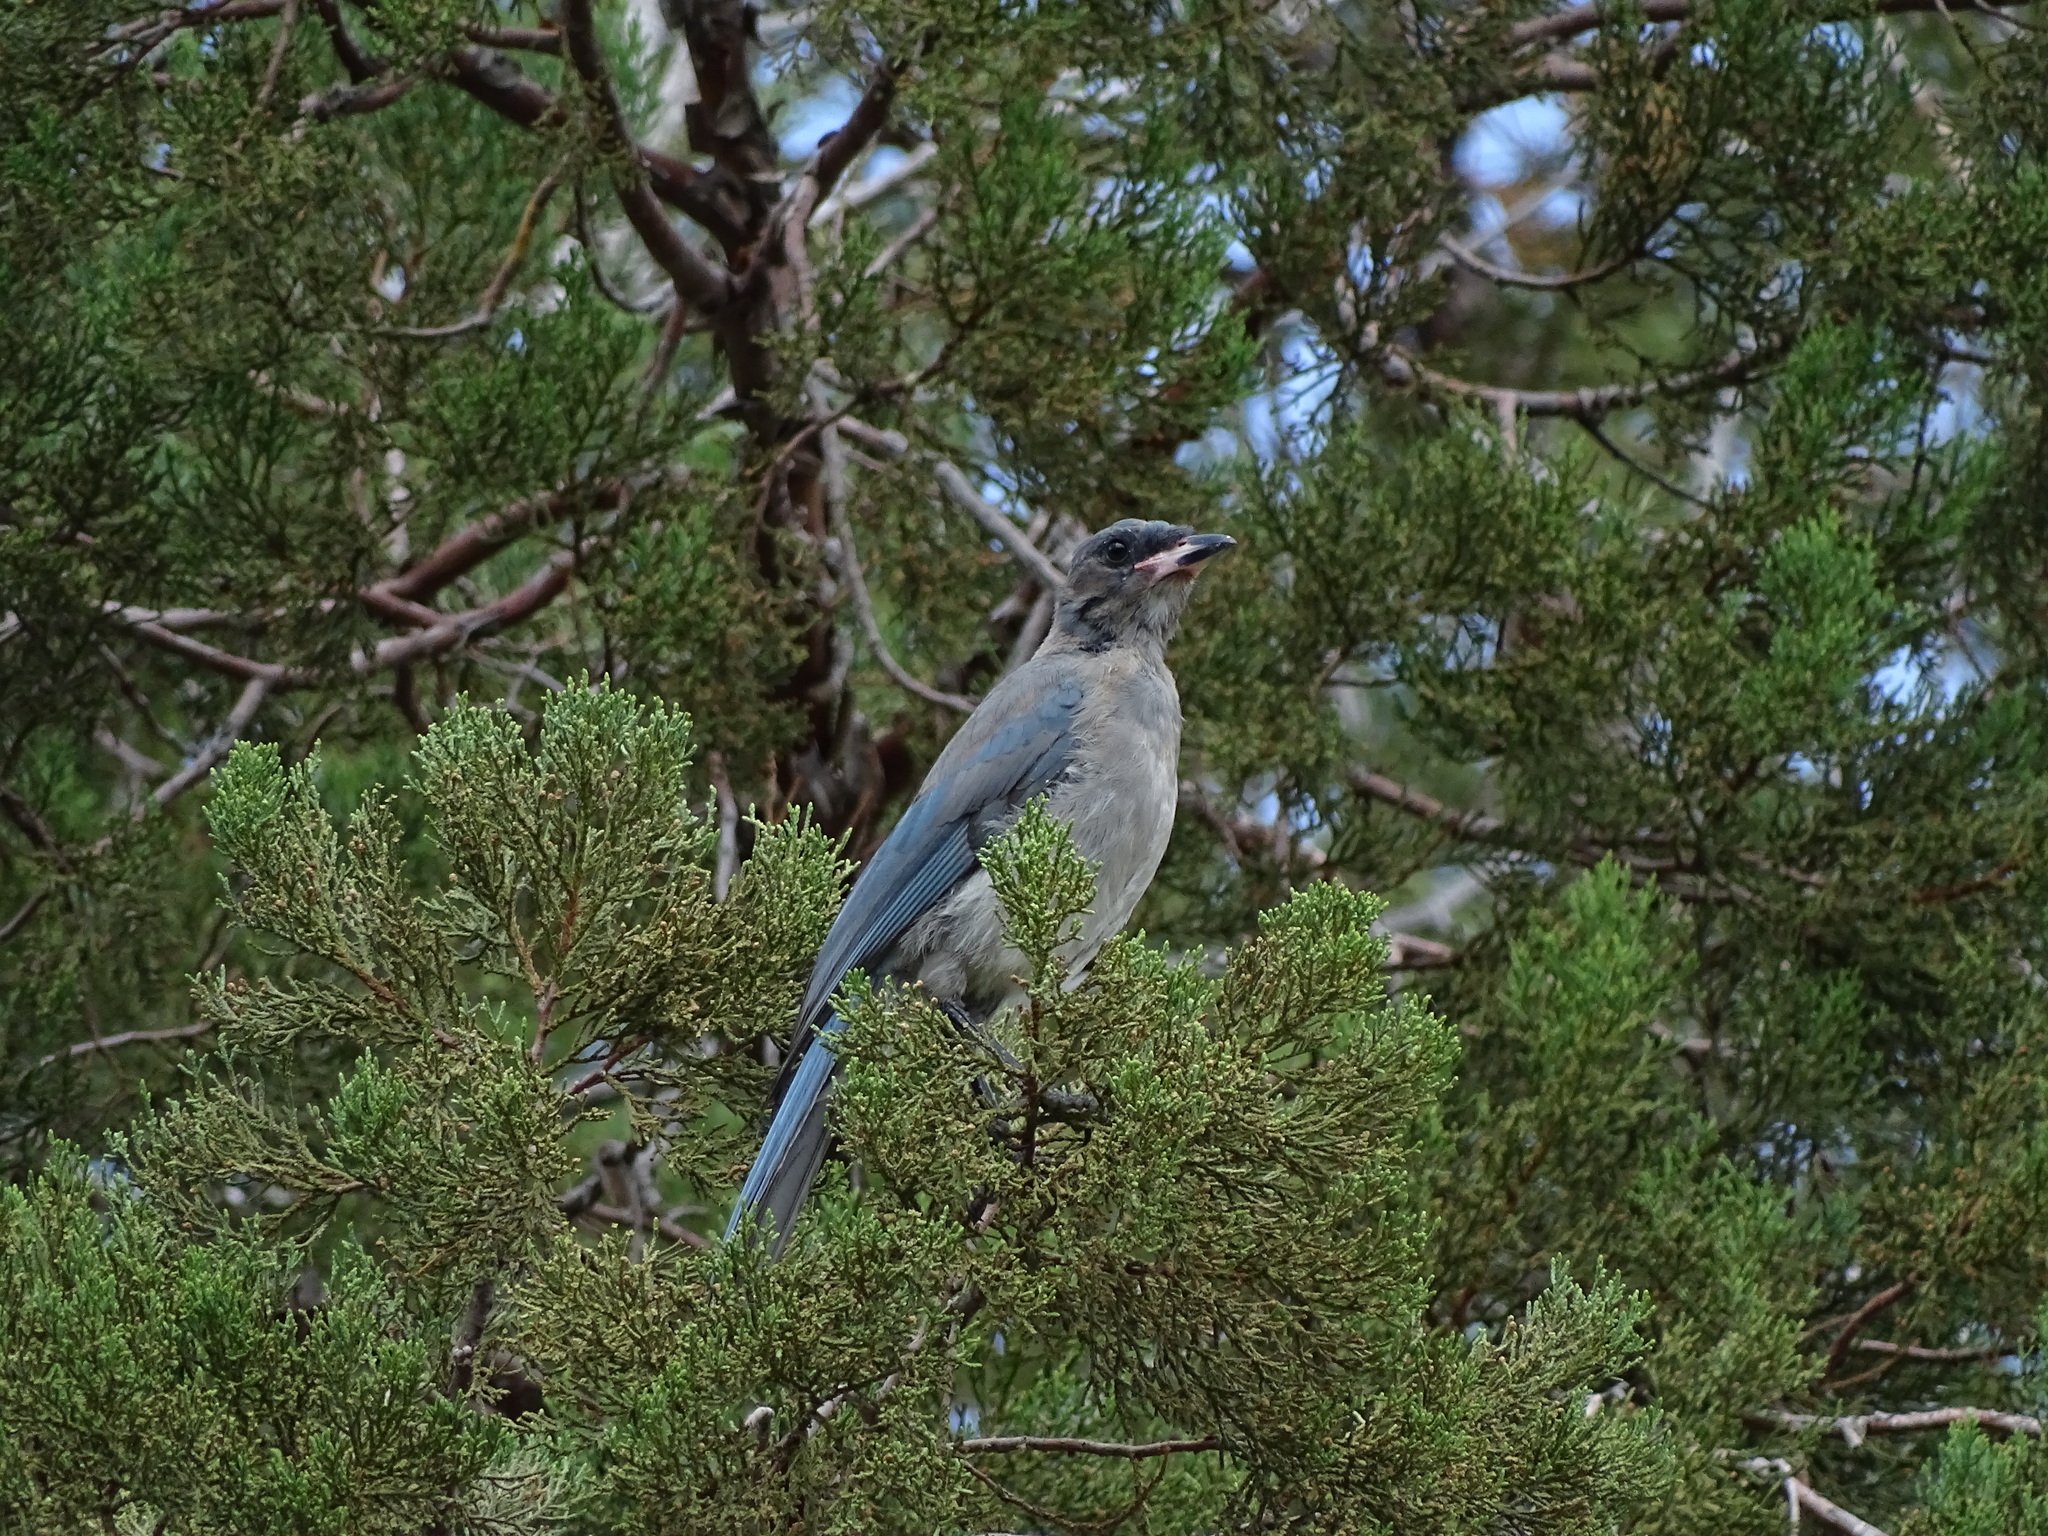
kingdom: Animalia
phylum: Chordata
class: Aves
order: Passeriformes
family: Corvidae
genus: Aphelocoma
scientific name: Aphelocoma wollweberi
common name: Mexican jay
